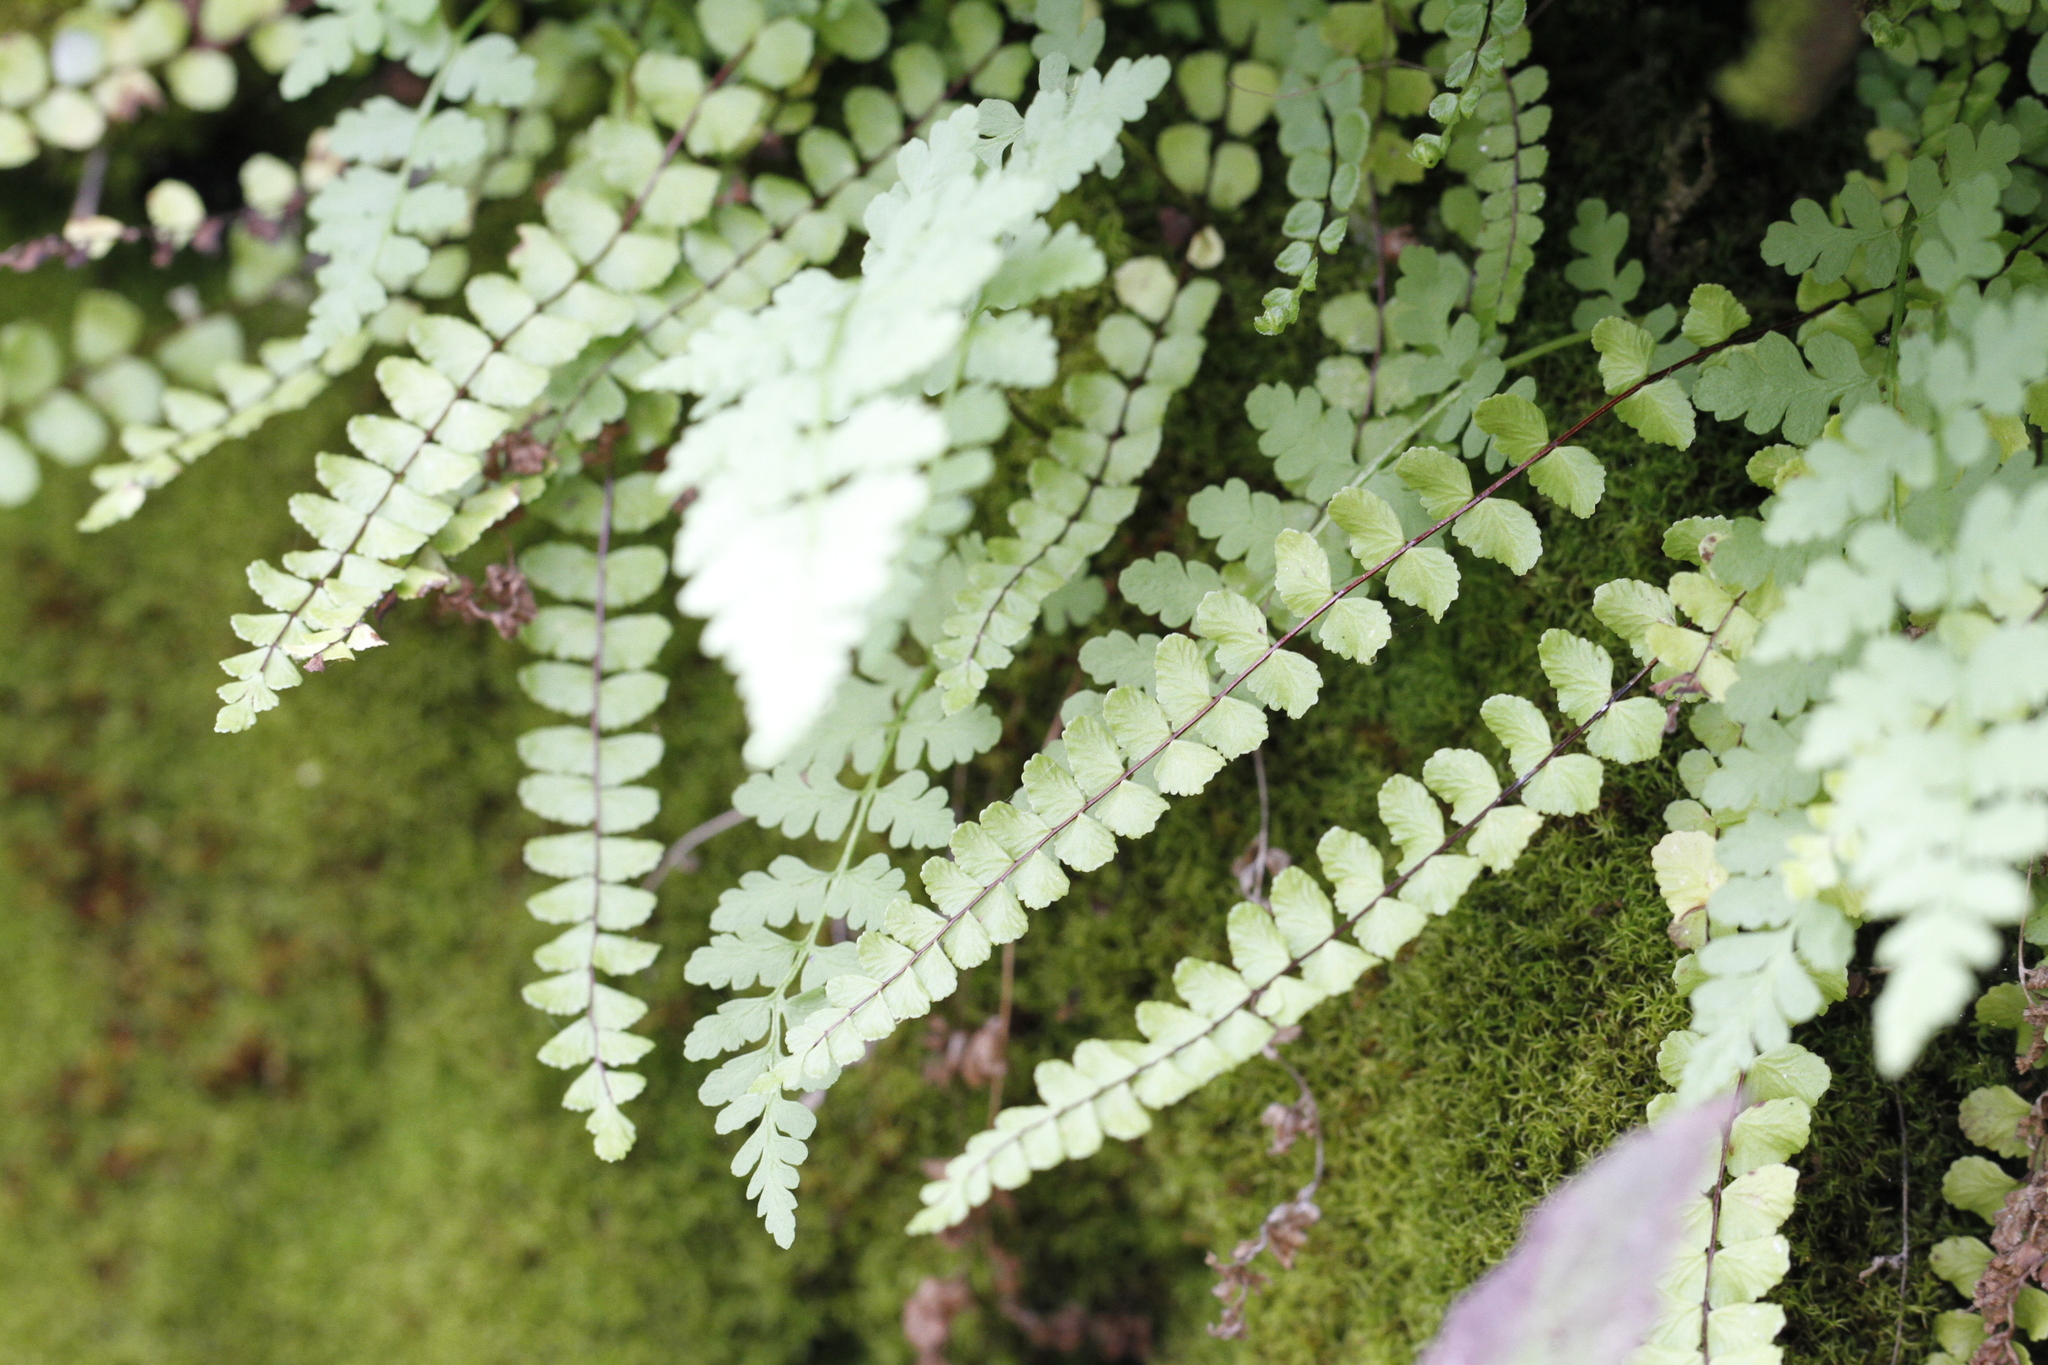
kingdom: Plantae
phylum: Tracheophyta
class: Polypodiopsida
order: Polypodiales
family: Aspleniaceae
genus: Asplenium
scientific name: Asplenium trichomanes
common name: Maidenhair spleenwort
